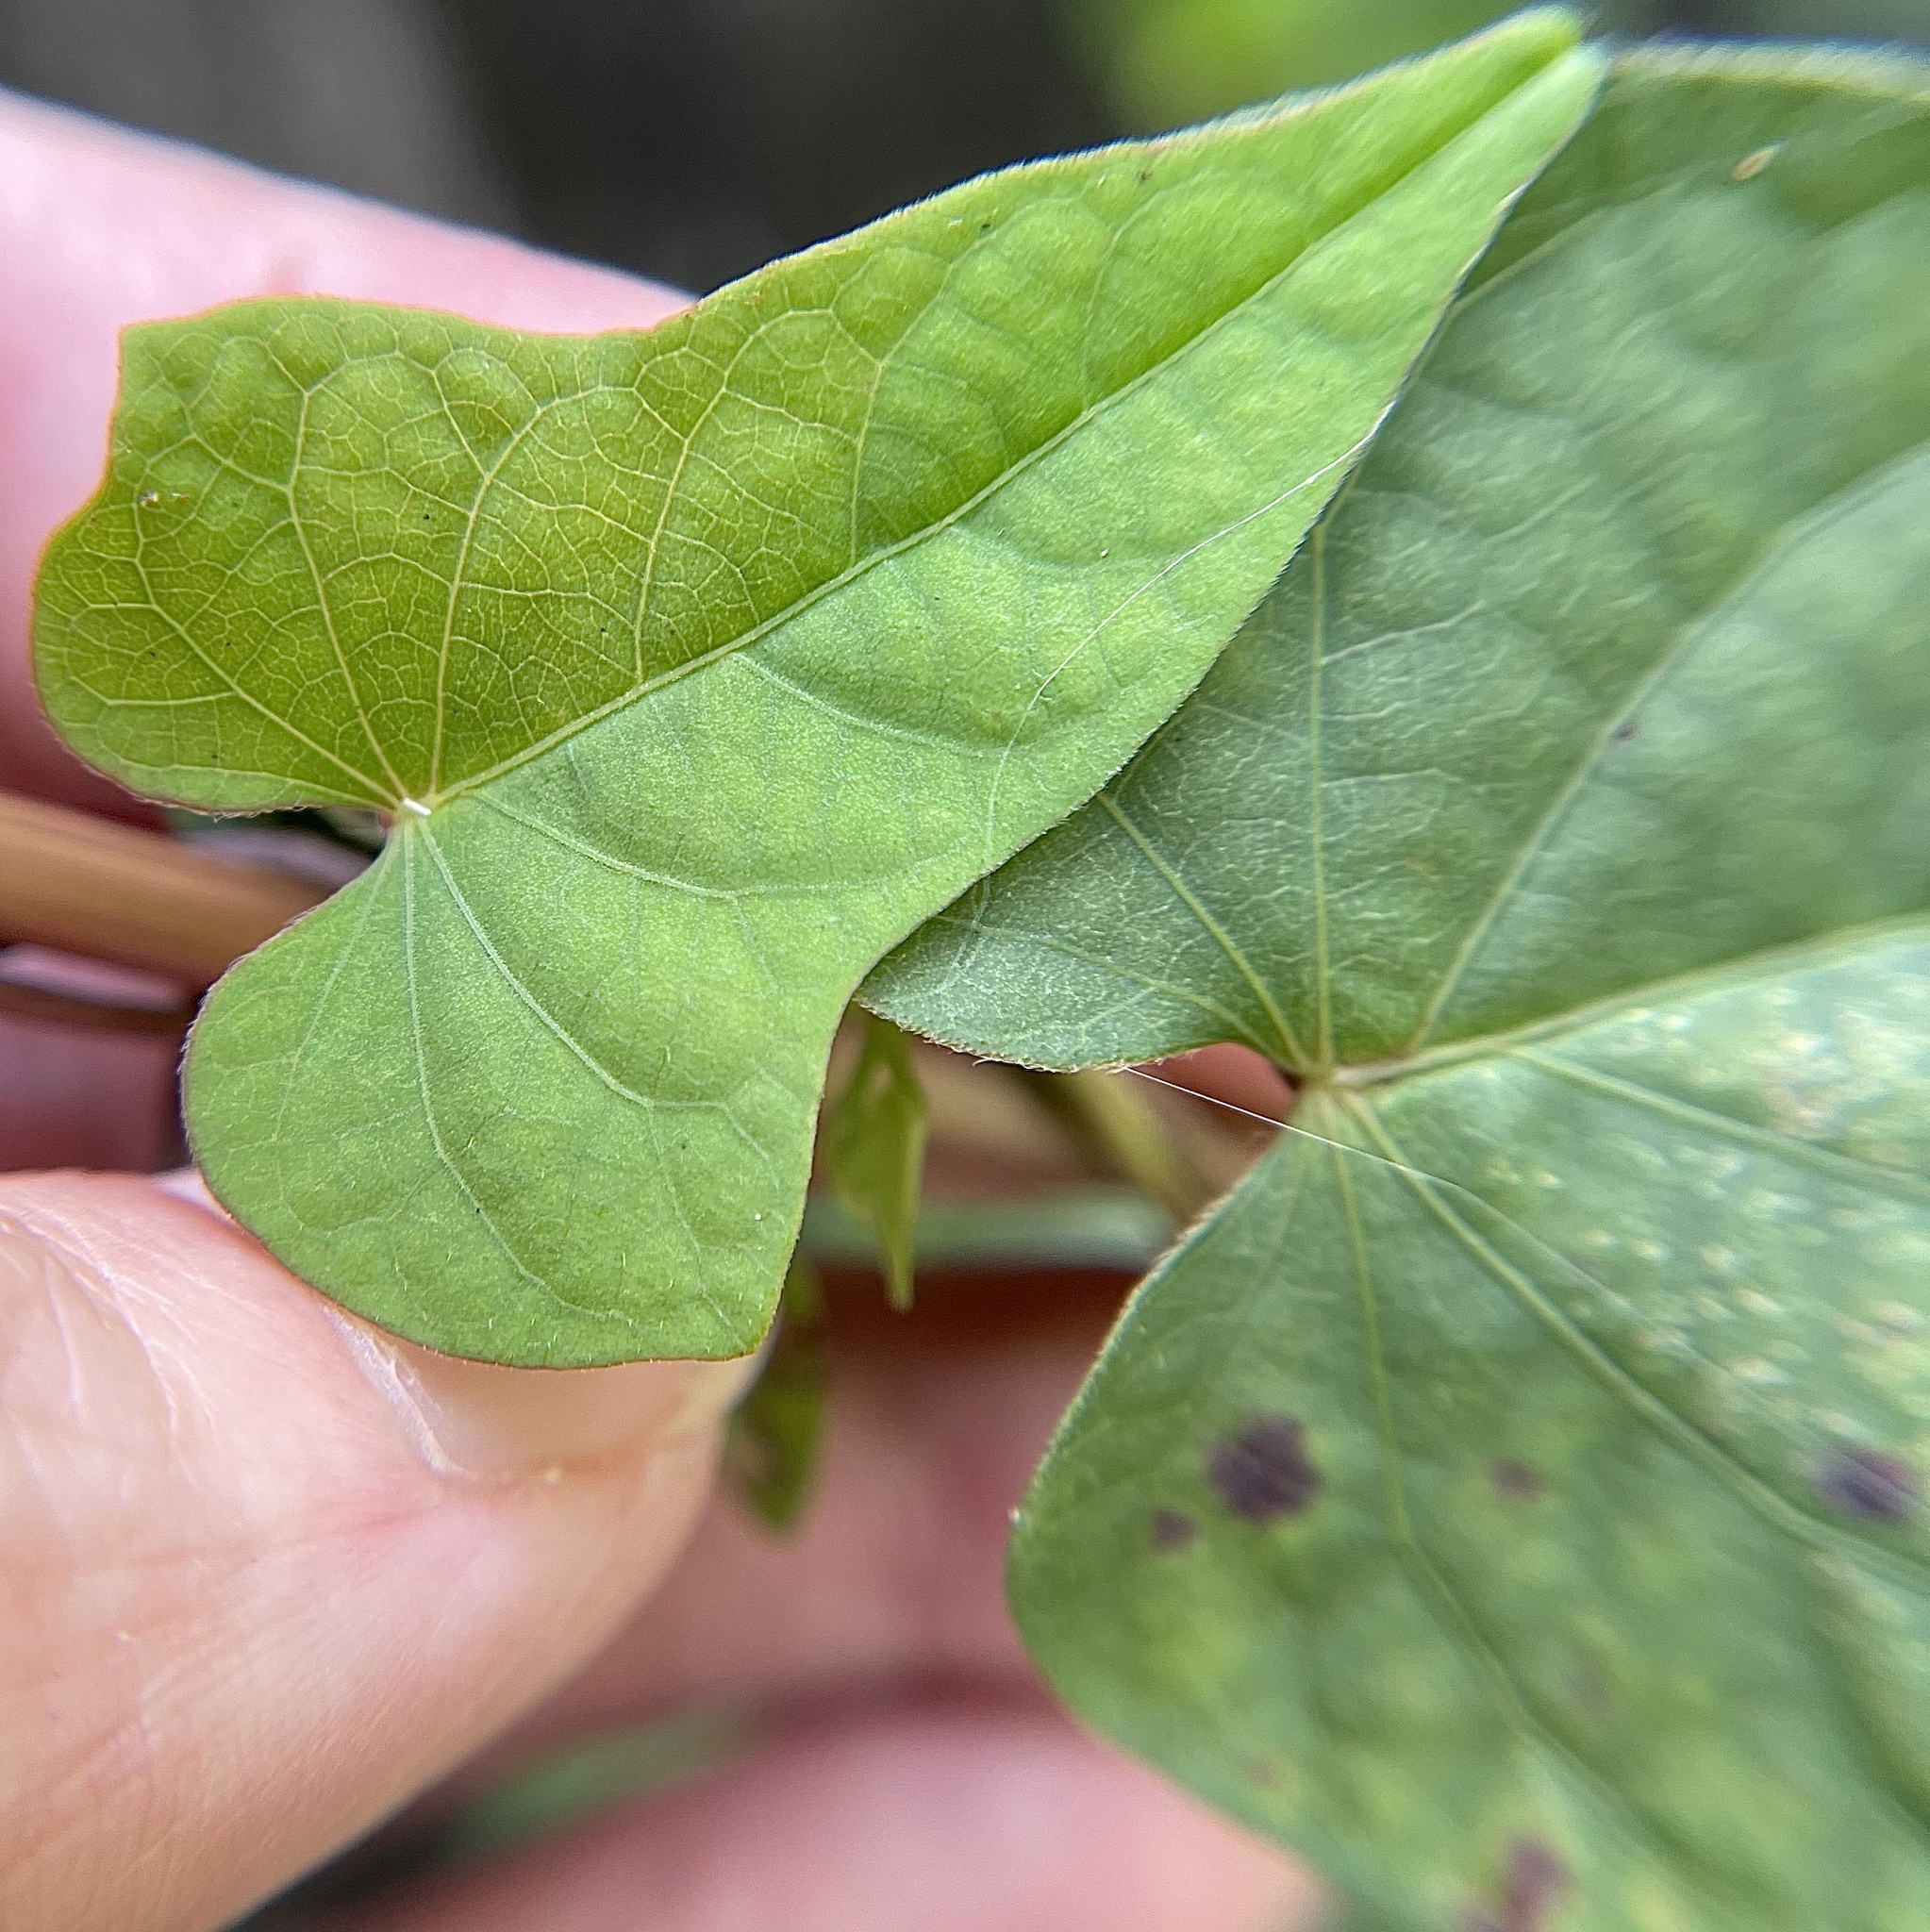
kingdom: Plantae
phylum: Tracheophyta
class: Magnoliopsida
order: Solanales
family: Convolvulaceae
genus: Ipomoea
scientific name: Ipomoea triloba
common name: Little-bell
